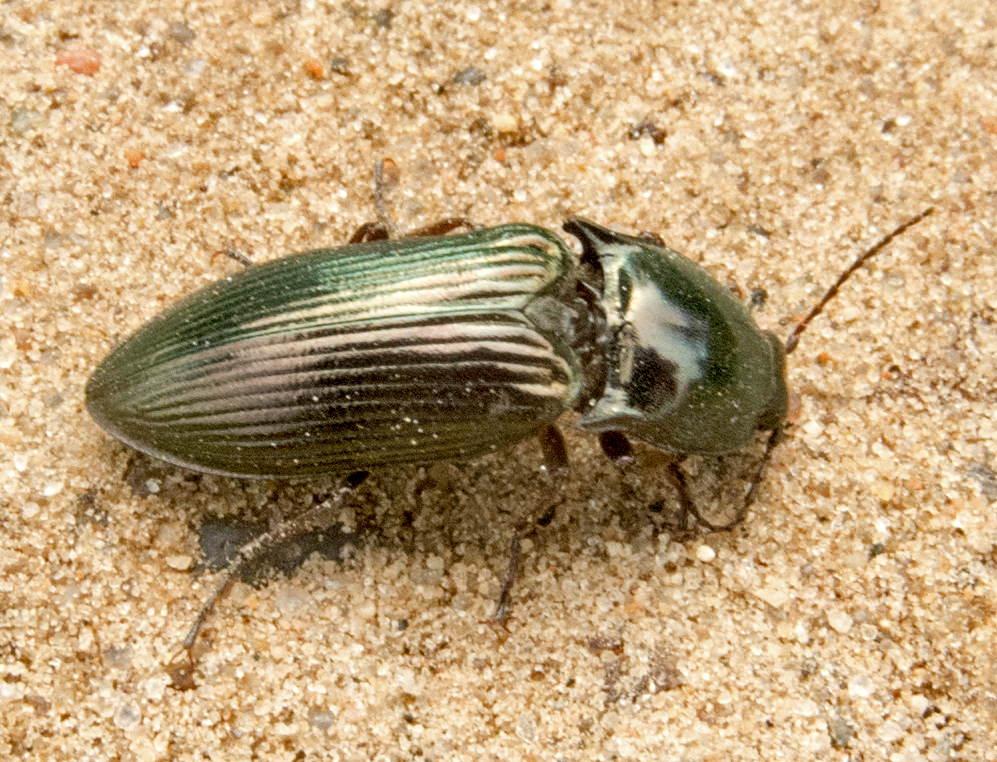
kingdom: Animalia
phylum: Arthropoda
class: Insecta
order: Coleoptera
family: Elateridae
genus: Selatosomus
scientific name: Selatosomus aeneus
